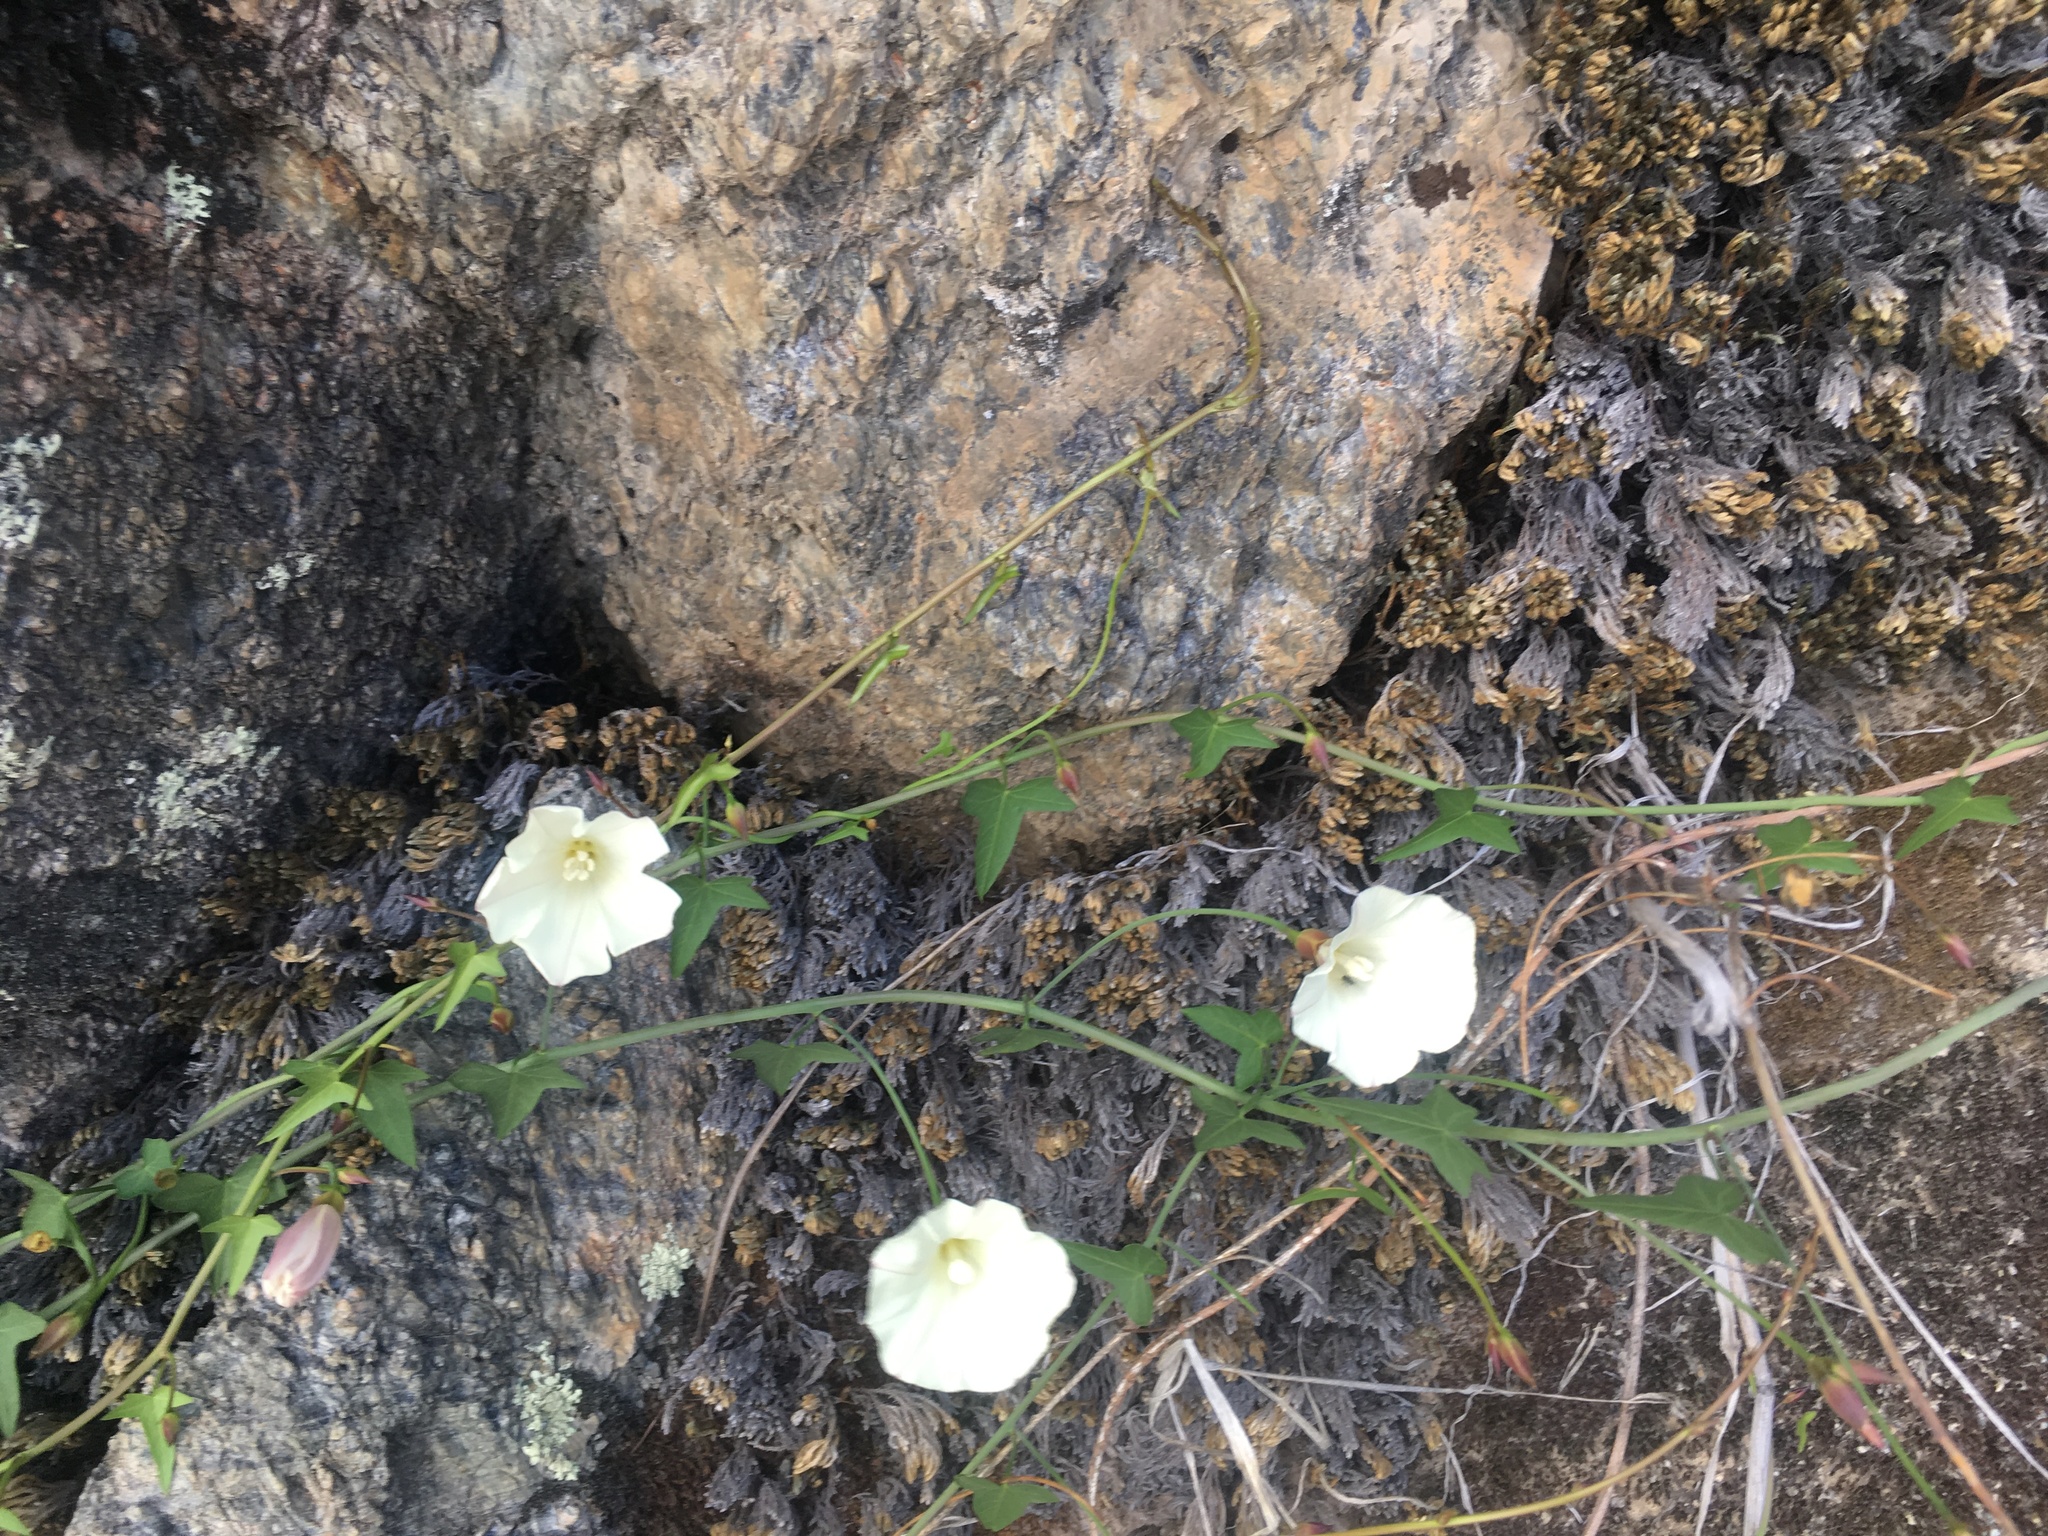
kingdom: Plantae
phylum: Tracheophyta
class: Magnoliopsida
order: Solanales
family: Convolvulaceae
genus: Calystegia
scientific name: Calystegia purpurata
